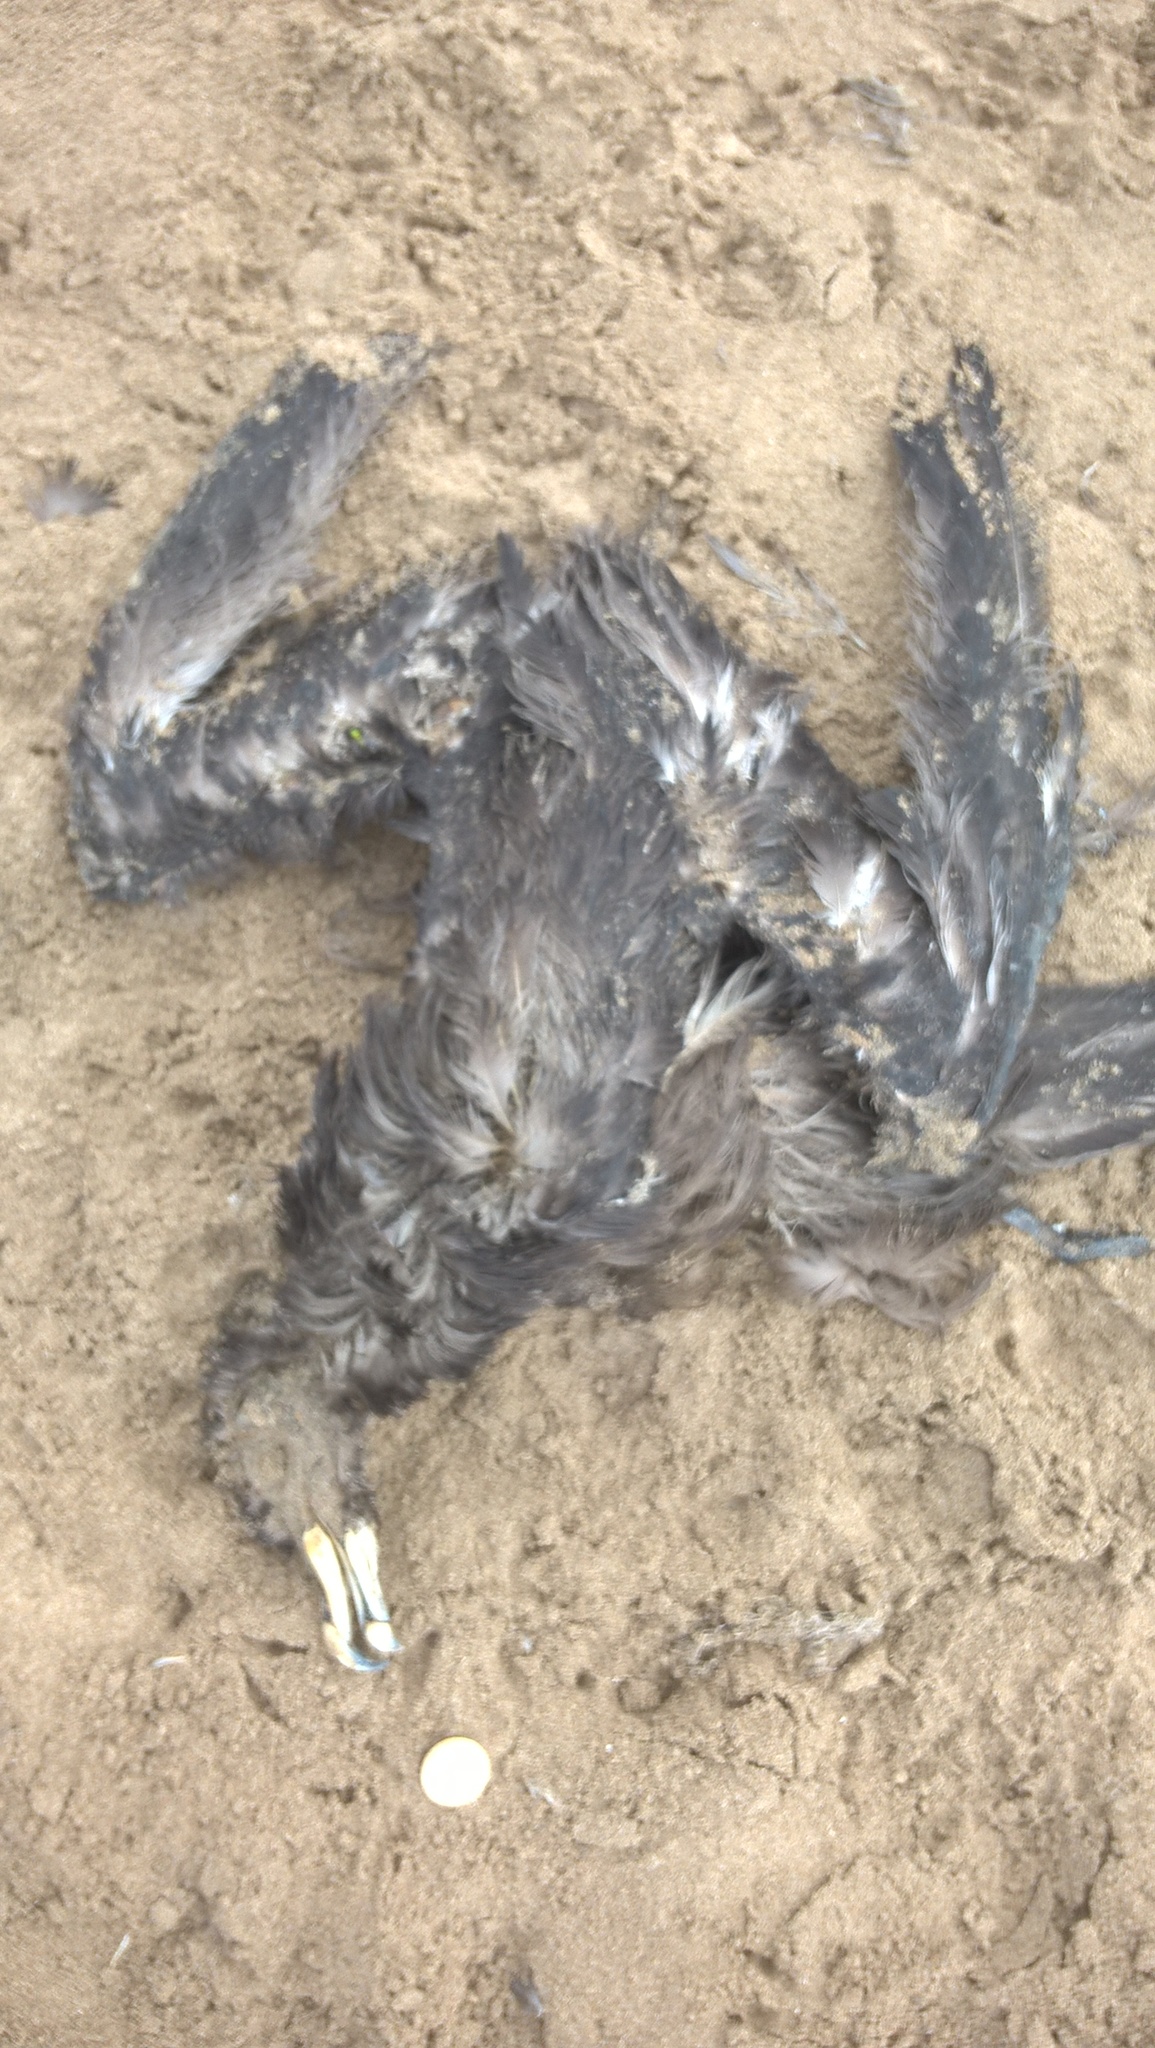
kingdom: Animalia
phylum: Chordata
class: Aves
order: Procellariiformes
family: Procellariidae
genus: Procellaria
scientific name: Procellaria aequinoctialis
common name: White-chinned petrel
